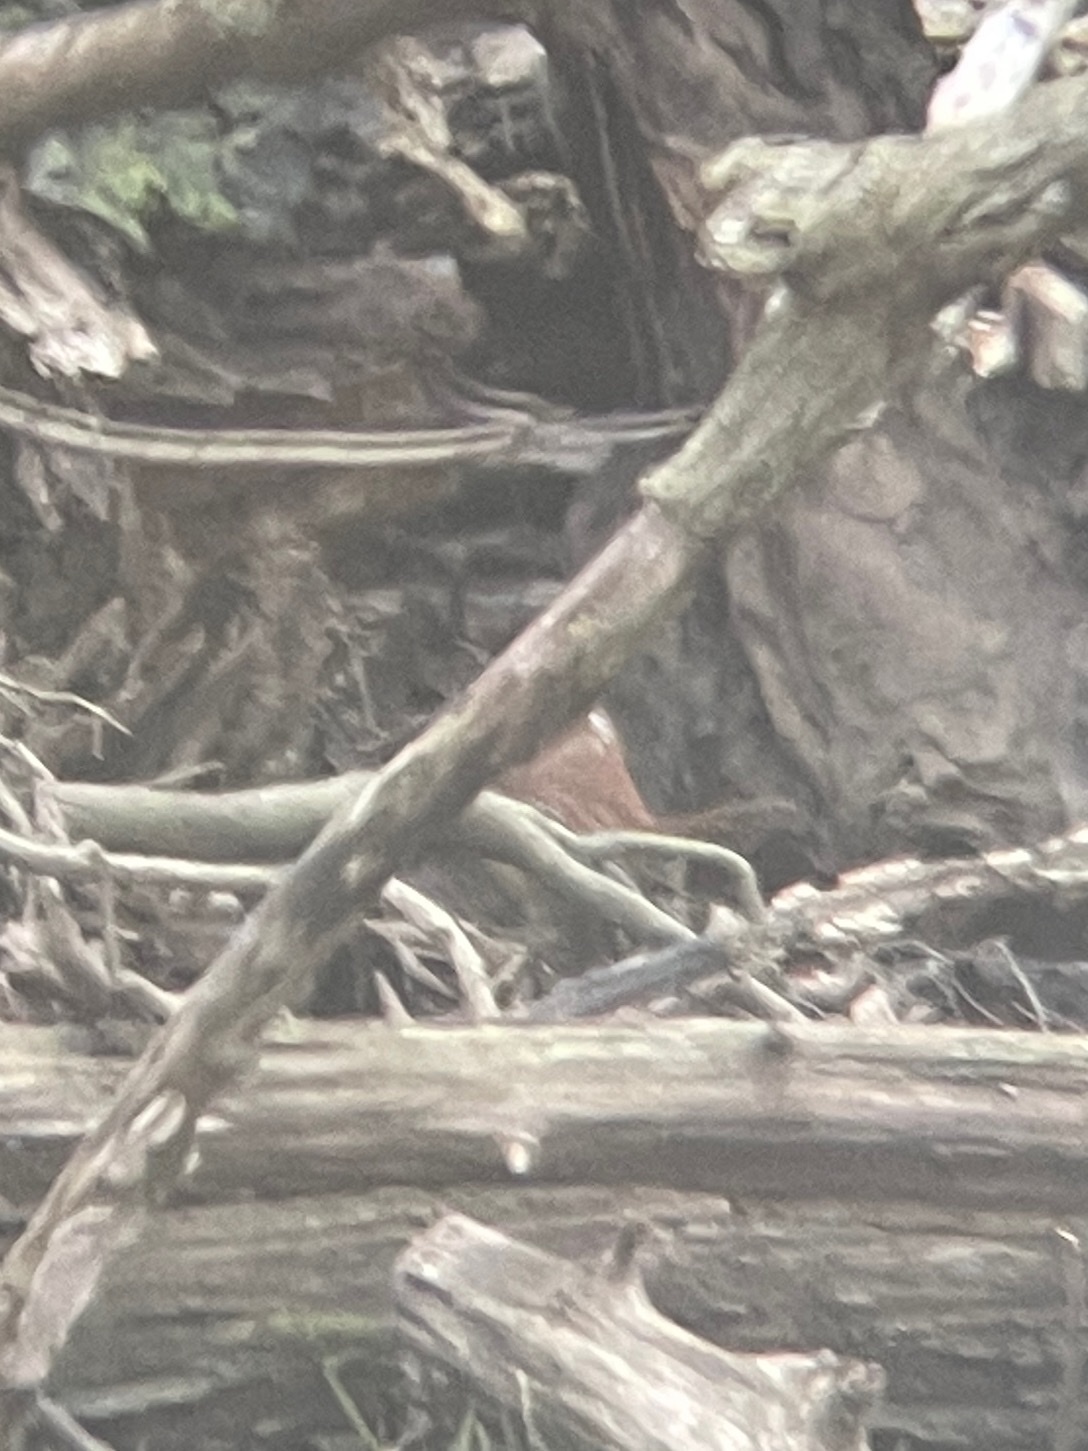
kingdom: Animalia
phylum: Chordata
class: Aves
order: Passeriformes
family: Troglodytidae
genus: Thryothorus
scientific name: Thryothorus ludovicianus
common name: Carolina wren
